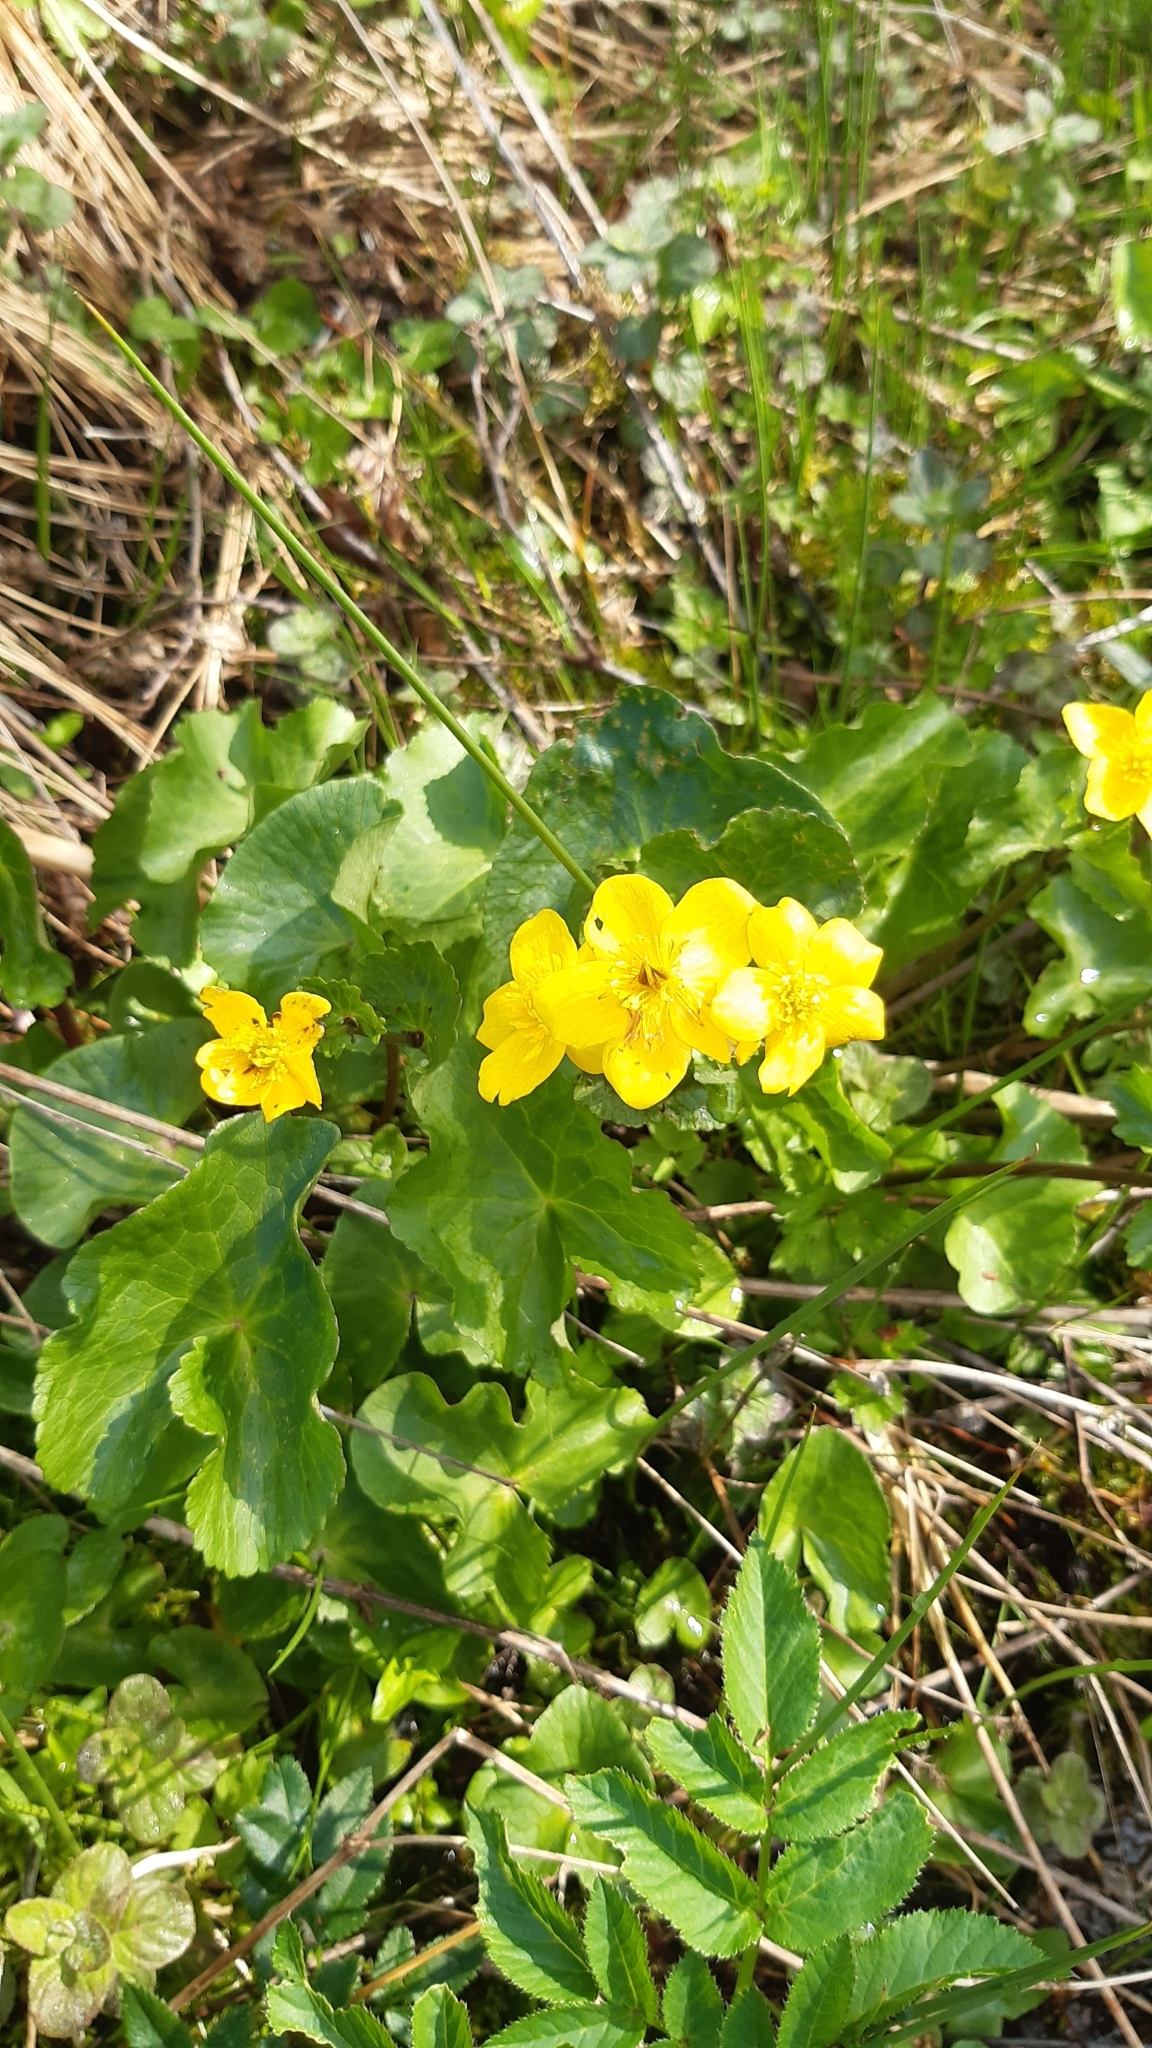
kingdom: Plantae
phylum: Tracheophyta
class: Magnoliopsida
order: Ranunculales
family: Ranunculaceae
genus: Caltha
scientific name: Caltha palustris
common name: Marsh marigold
